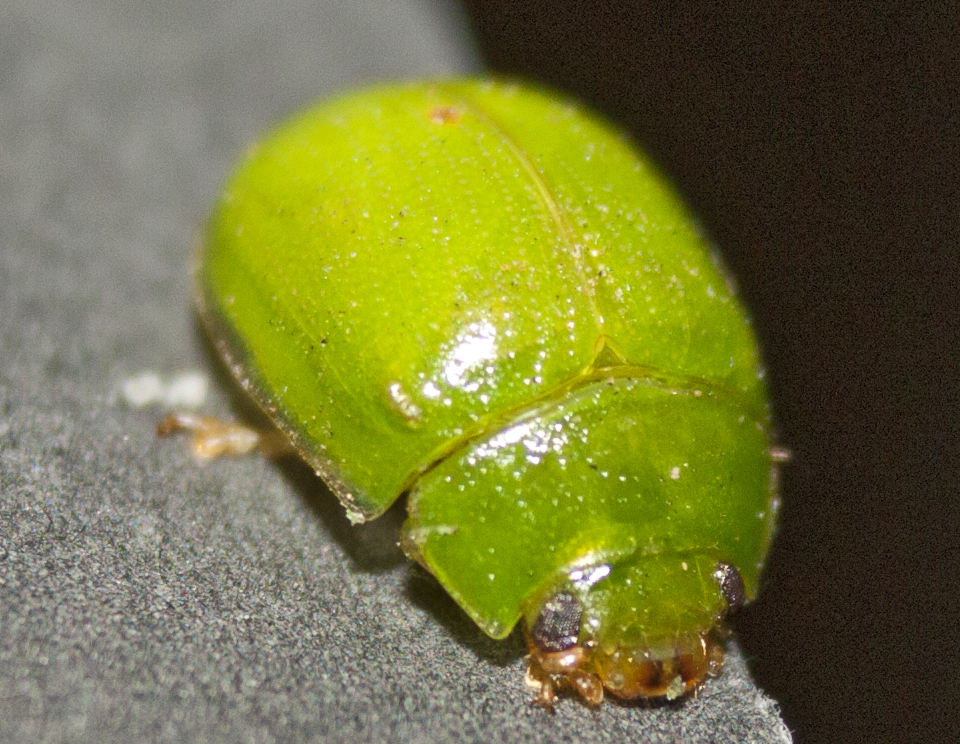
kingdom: Animalia
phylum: Arthropoda
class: Insecta
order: Coleoptera
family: Chrysomelidae
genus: Paropsides
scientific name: Paropsides
